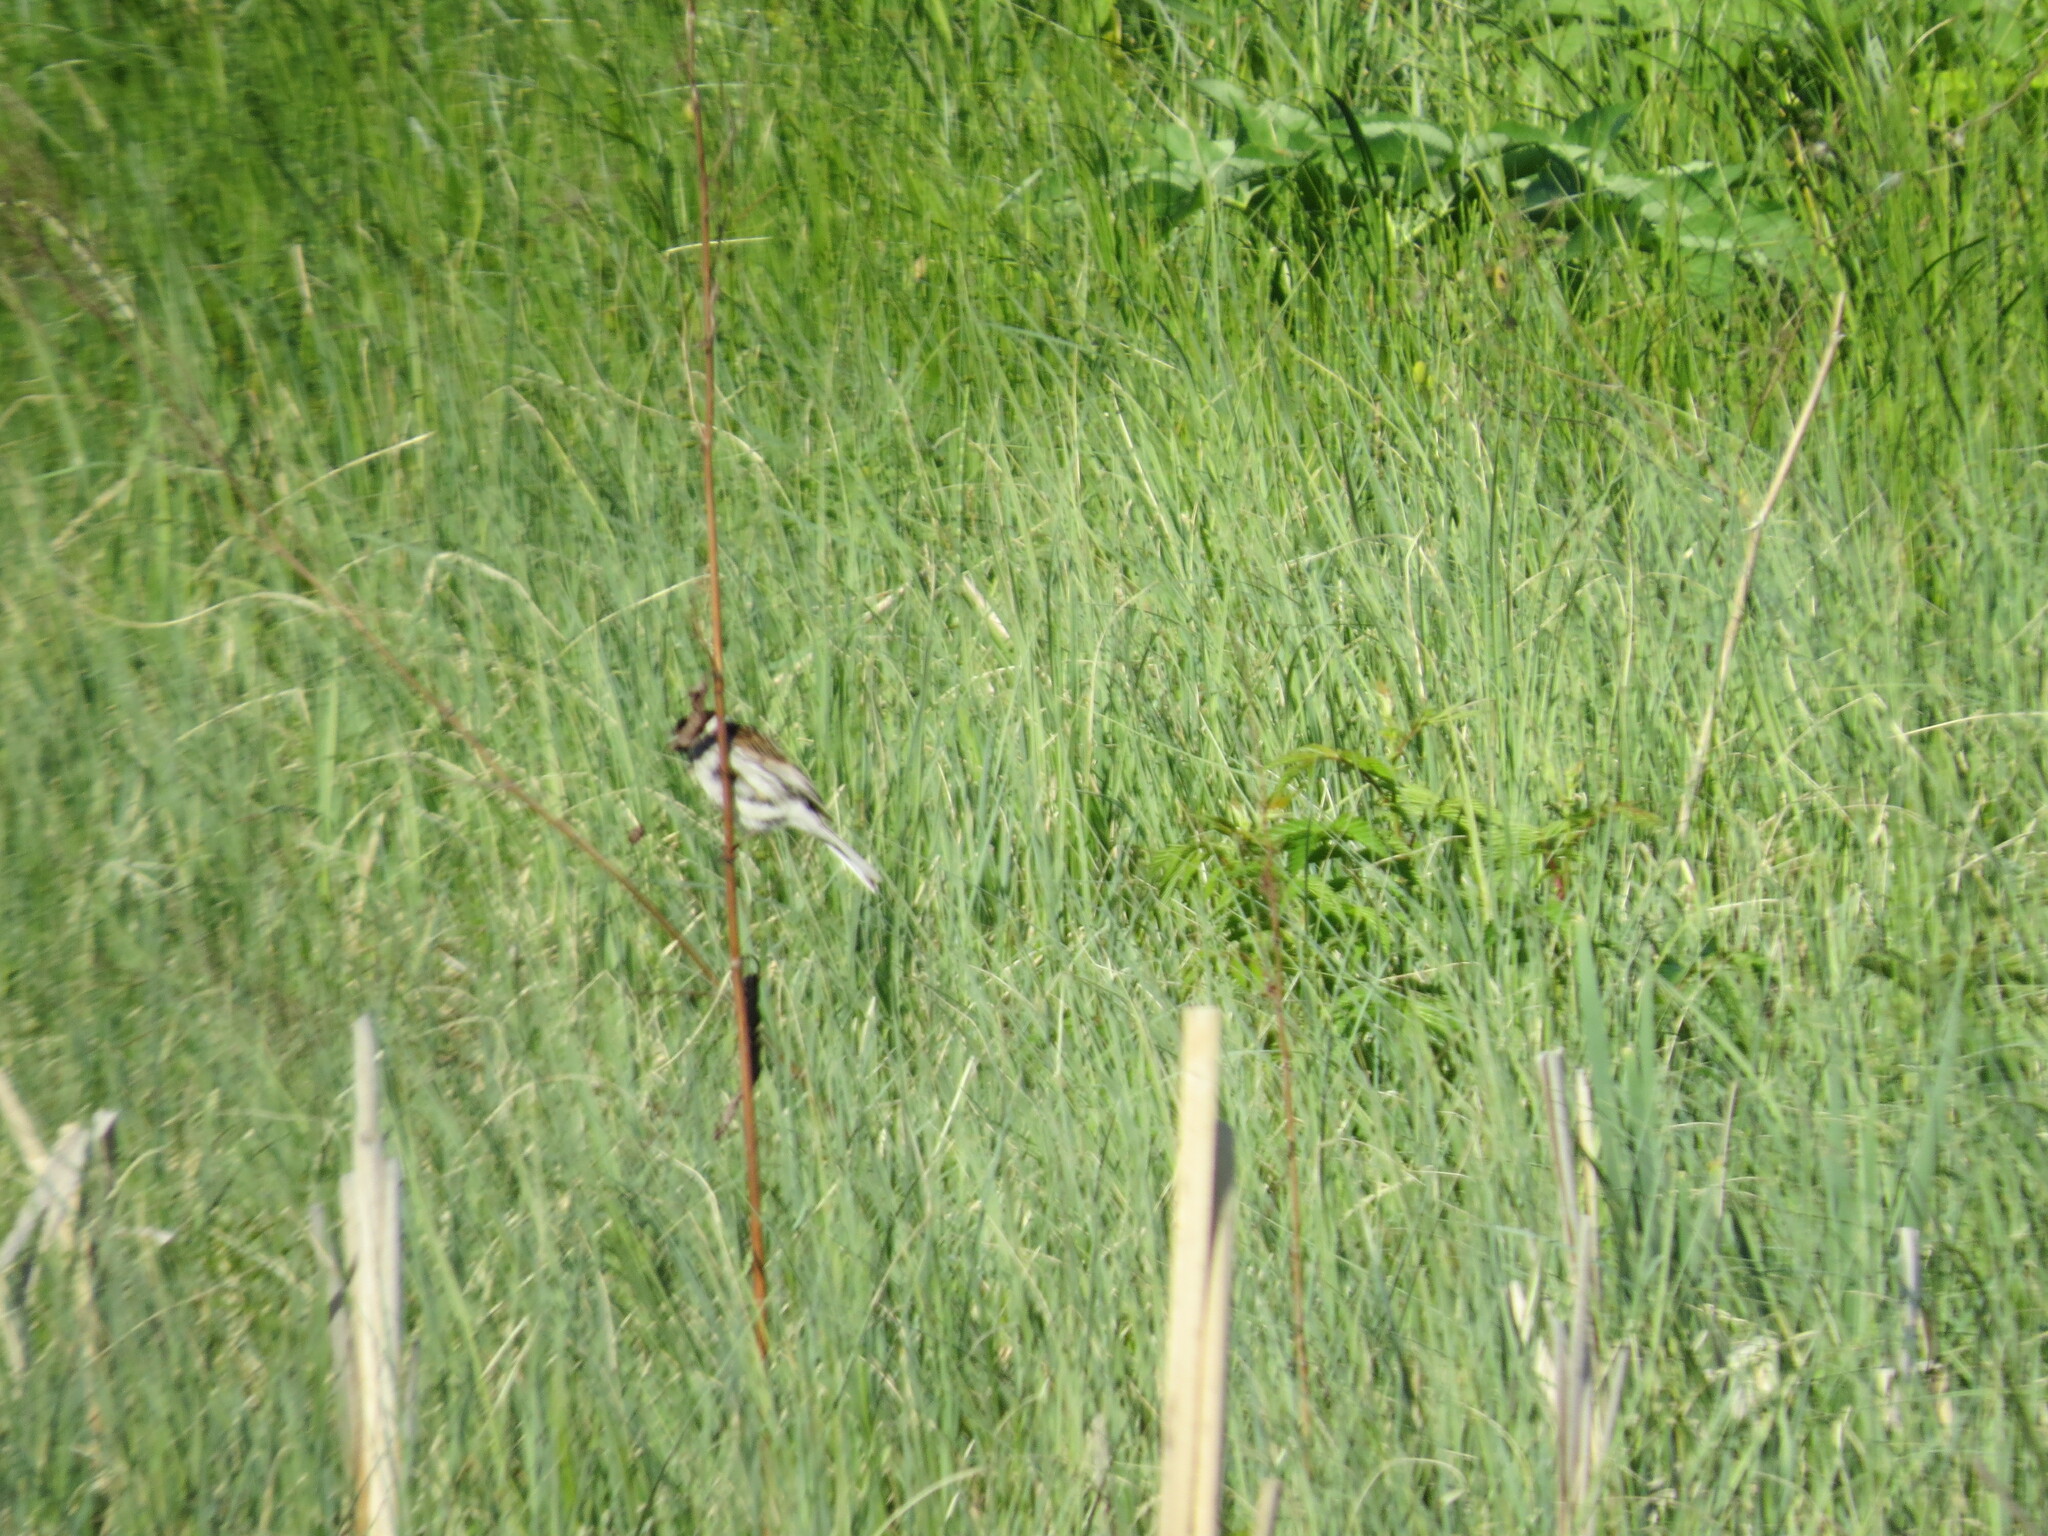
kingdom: Animalia
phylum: Chordata
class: Aves
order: Passeriformes
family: Emberizidae
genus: Emberiza
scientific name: Emberiza schoeniclus
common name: Reed bunting
